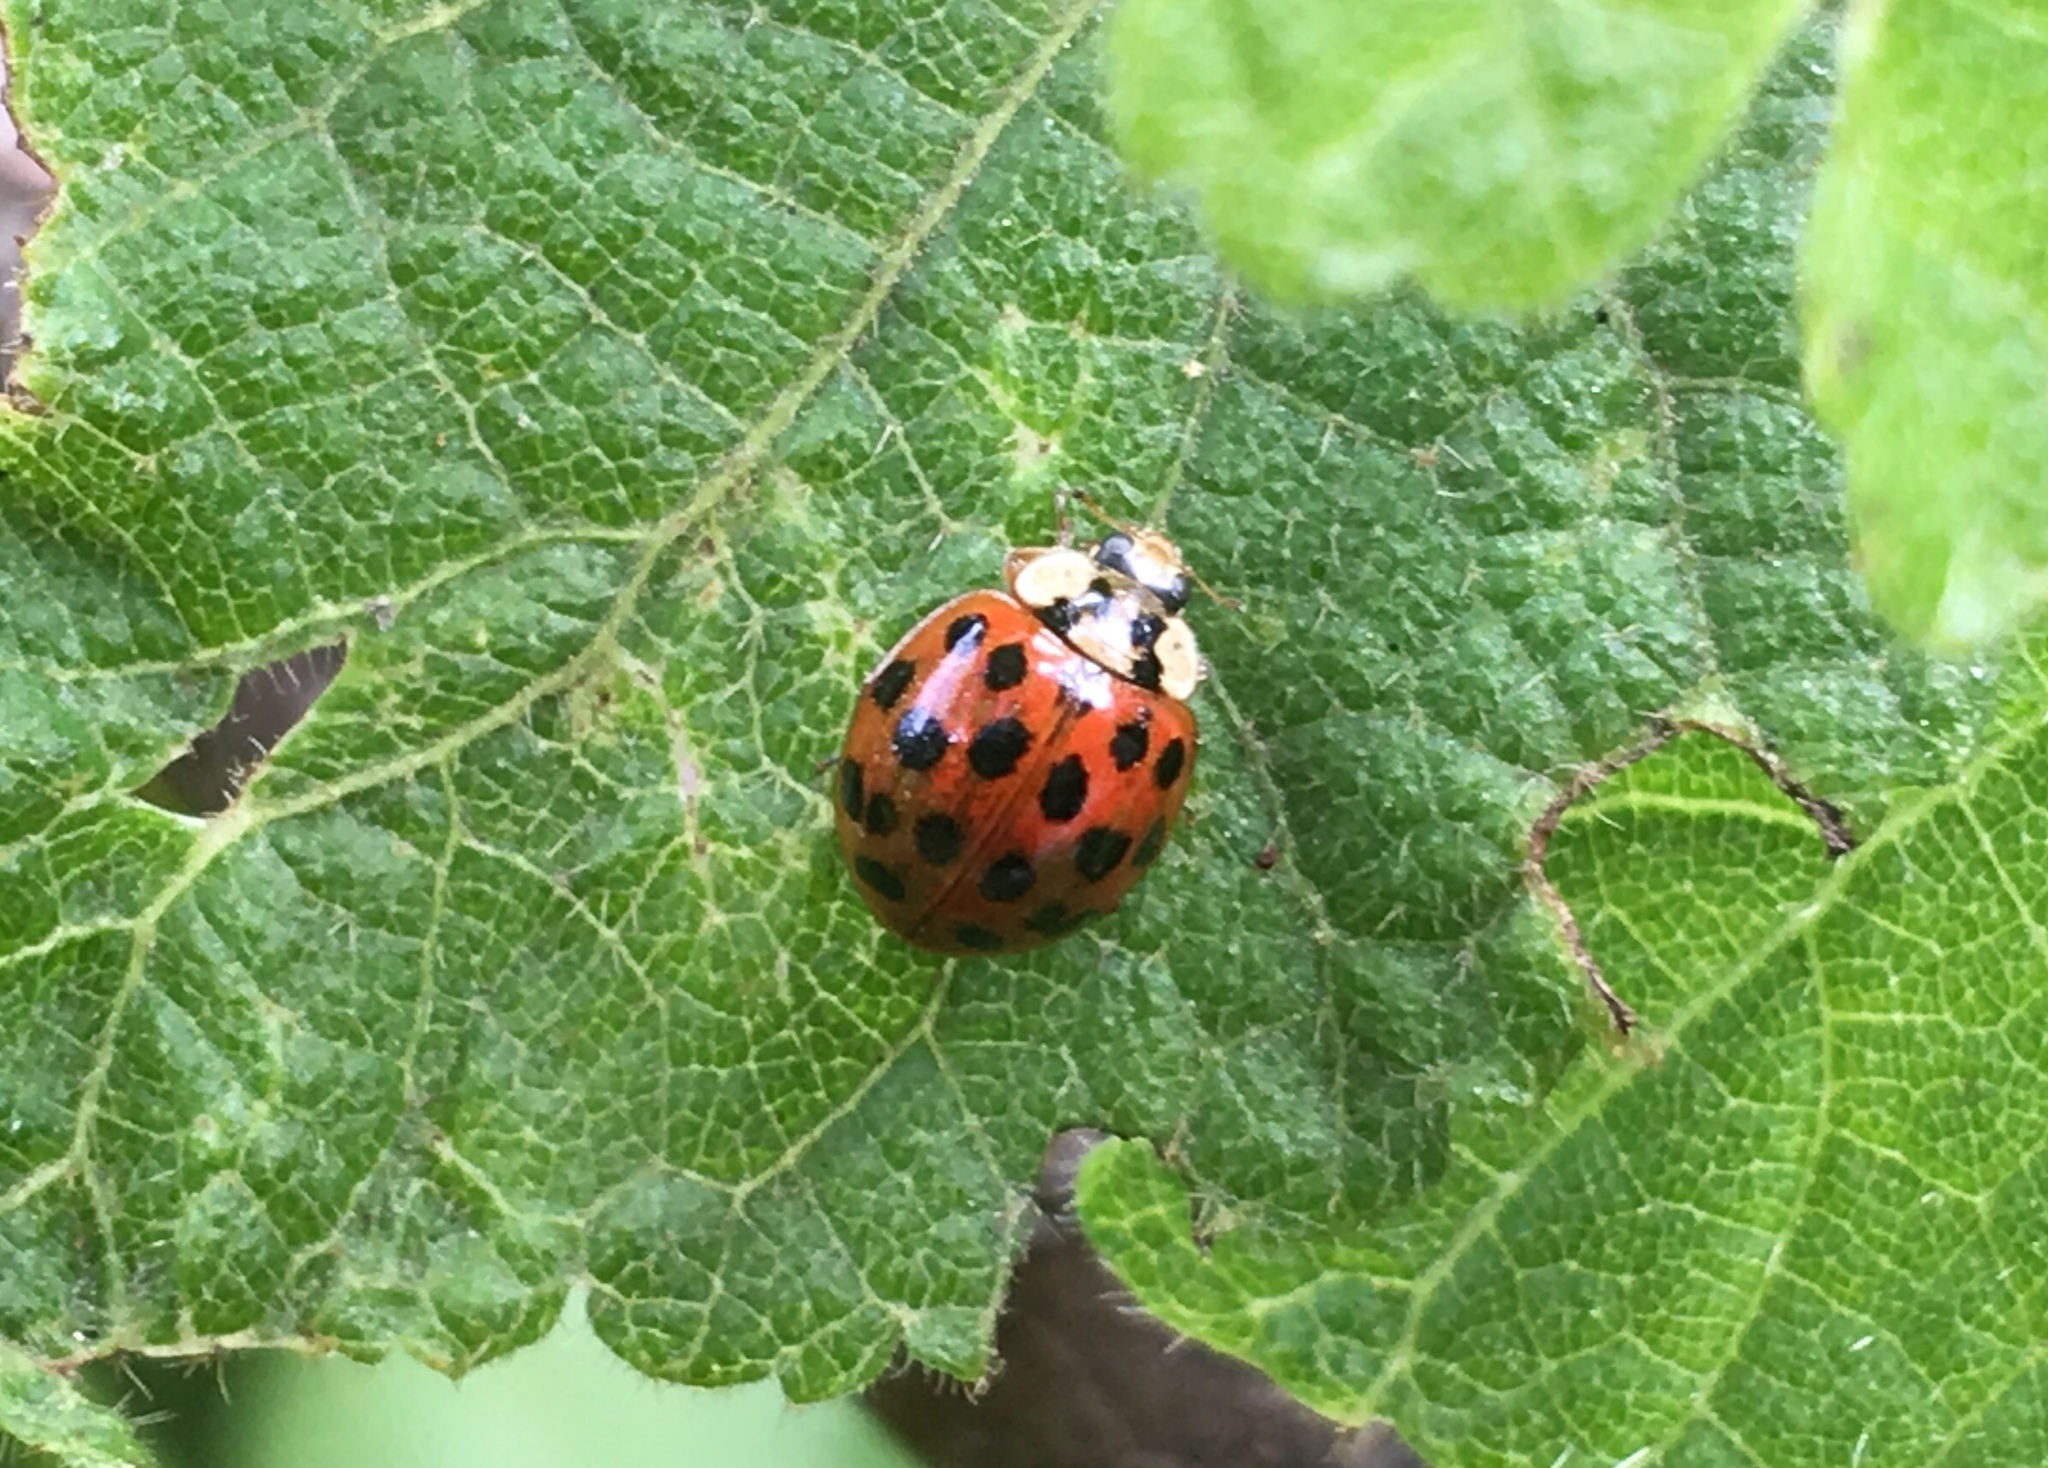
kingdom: Animalia
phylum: Arthropoda
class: Insecta
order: Coleoptera
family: Coccinellidae
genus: Harmonia
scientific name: Harmonia axyridis
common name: Harlequin ladybird
